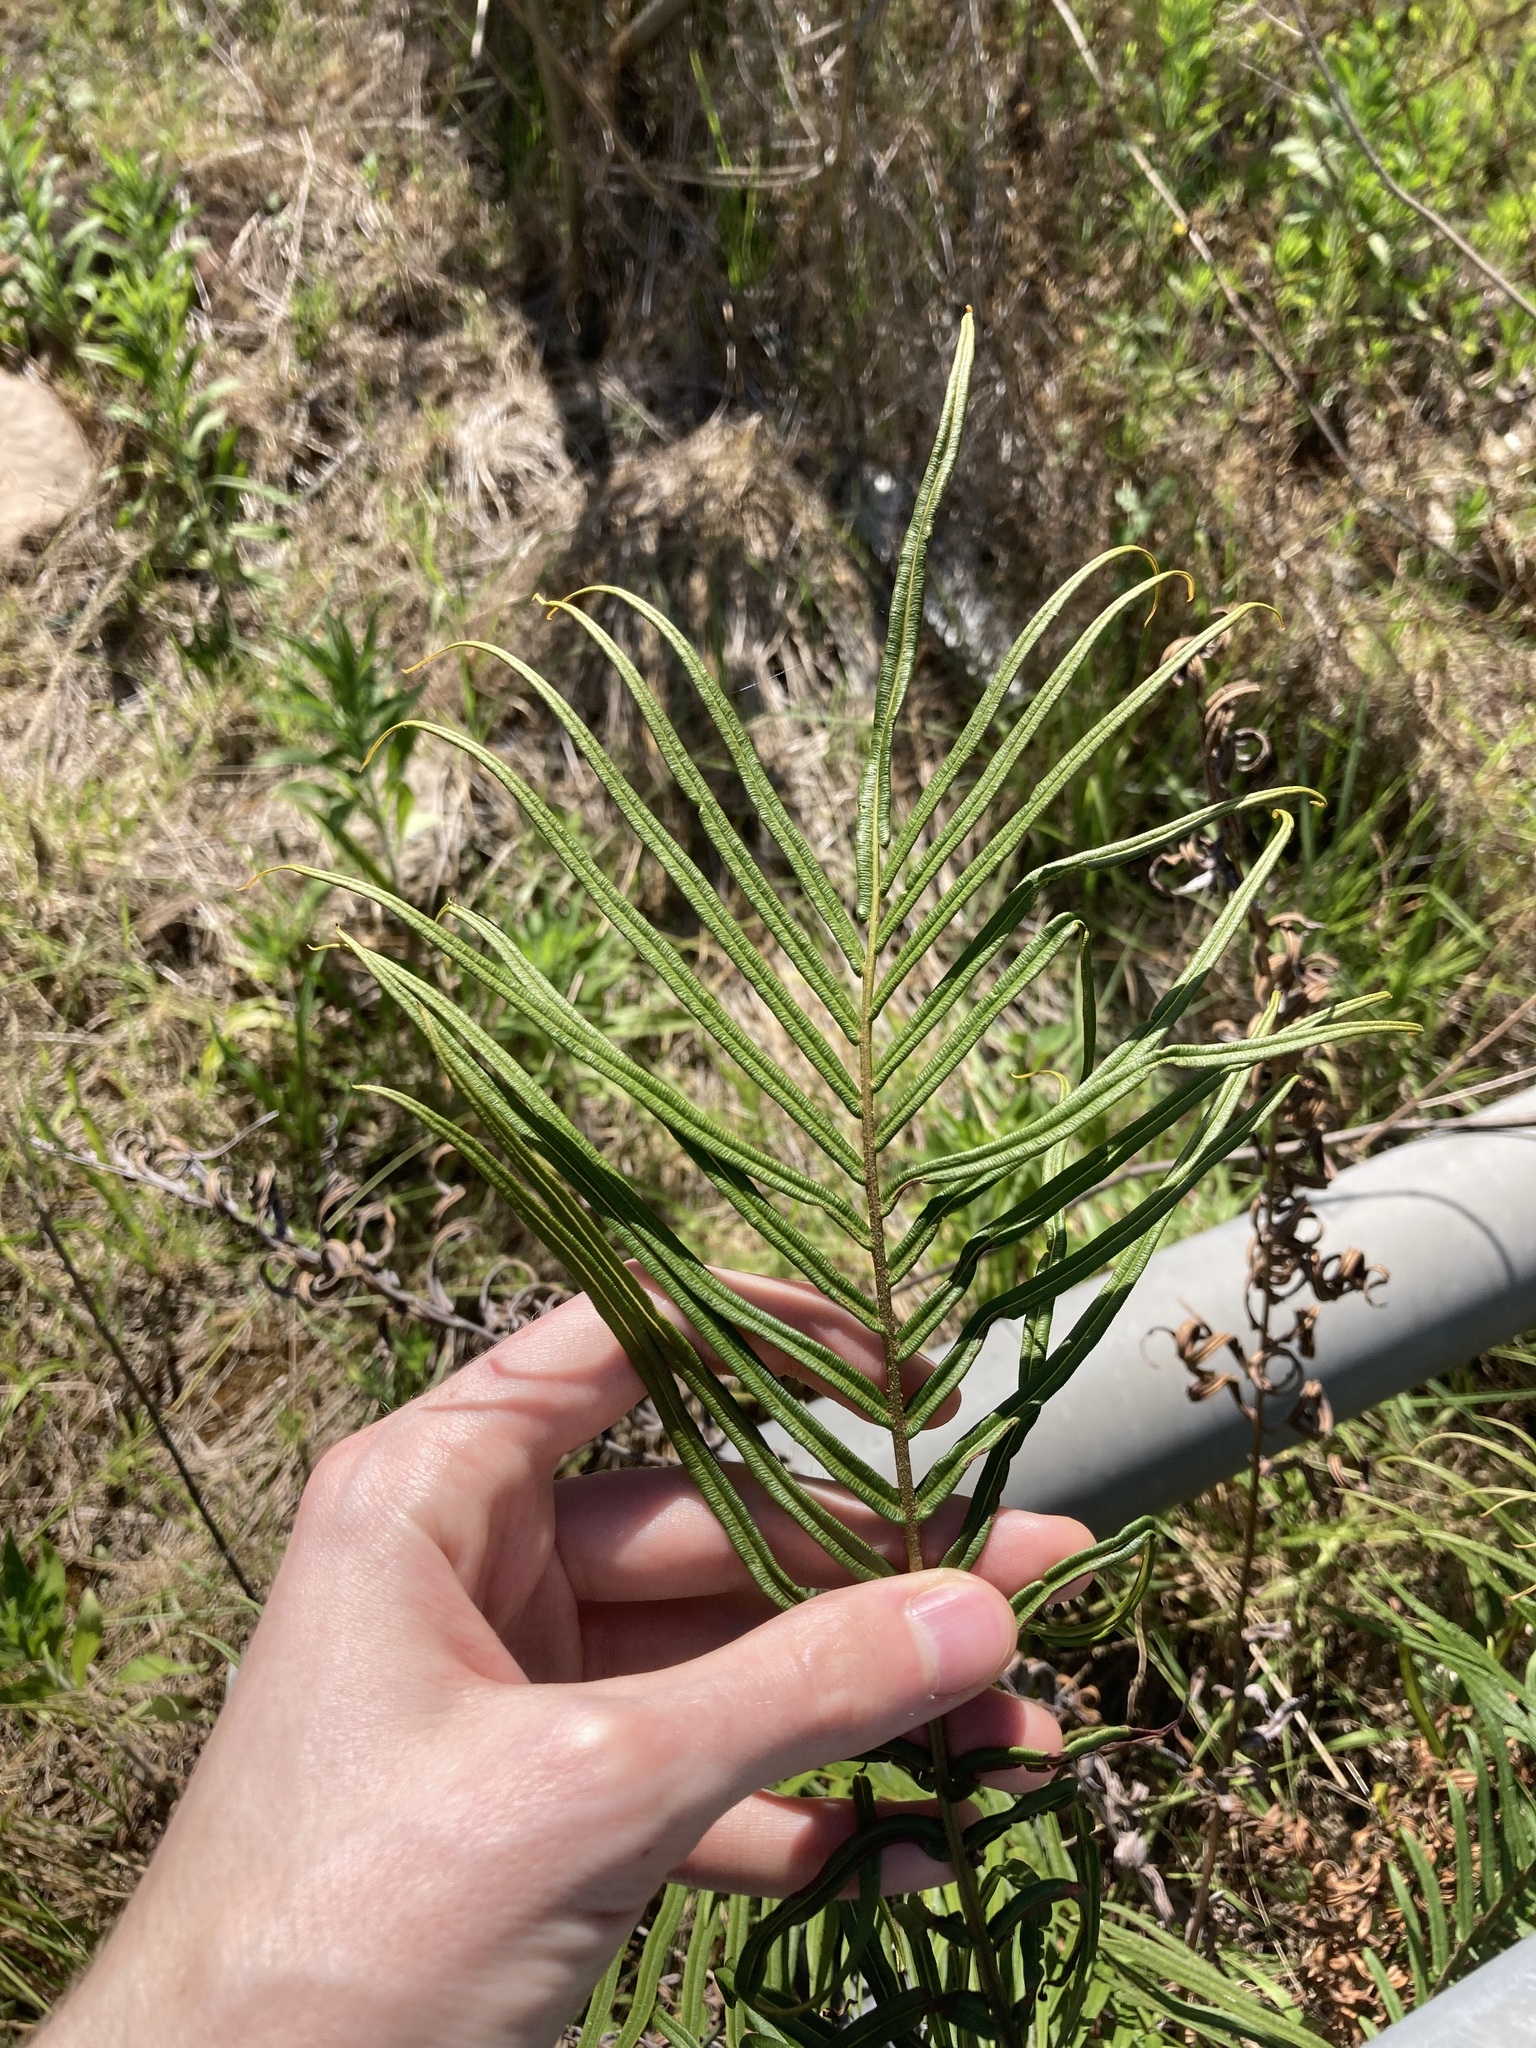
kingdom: Plantae
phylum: Tracheophyta
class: Polypodiopsida
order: Polypodiales
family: Pteridaceae
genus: Pteris
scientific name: Pteris vittata
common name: Ladder brake
